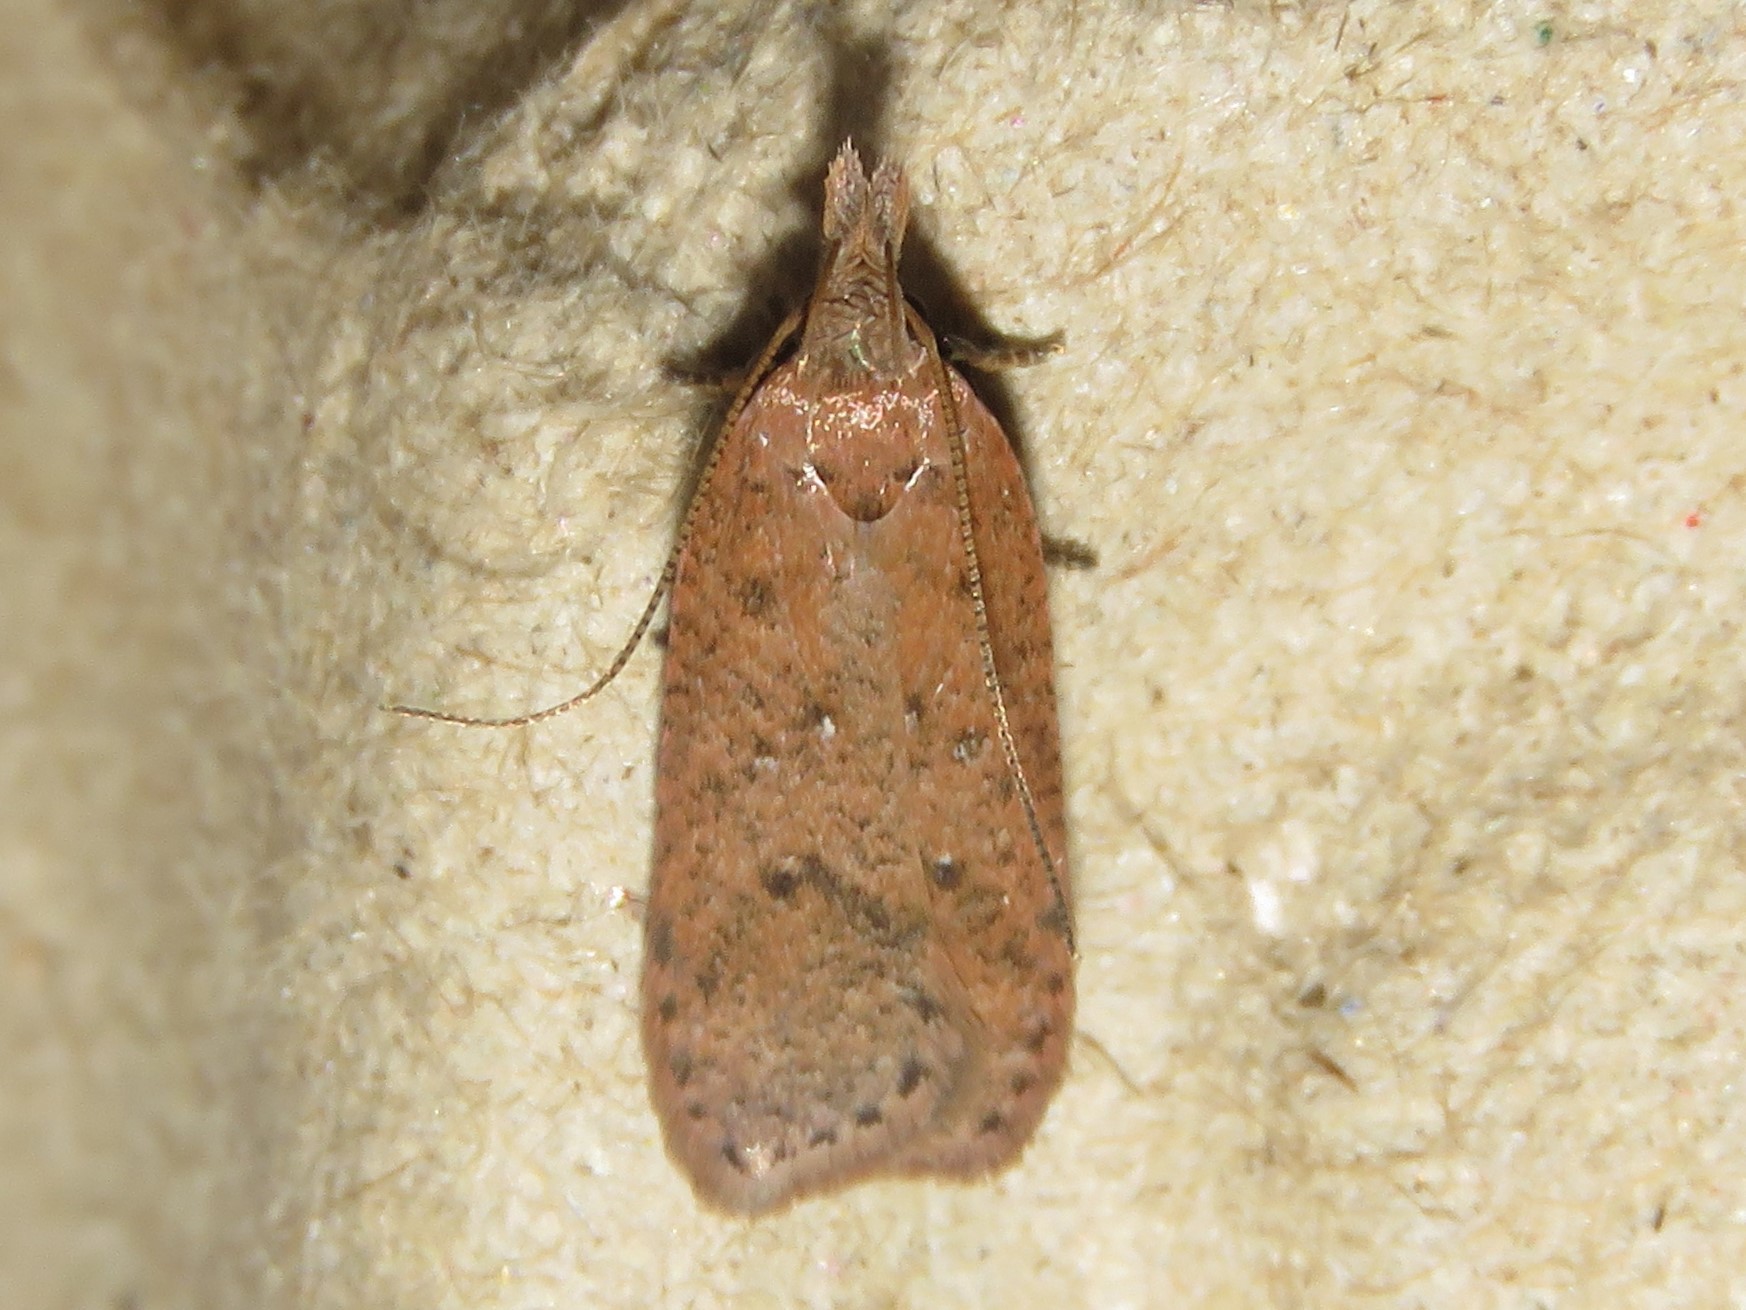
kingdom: Animalia
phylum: Arthropoda
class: Insecta
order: Lepidoptera
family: Gelechiidae
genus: Dichomeris
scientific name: Dichomeris ventrellus
